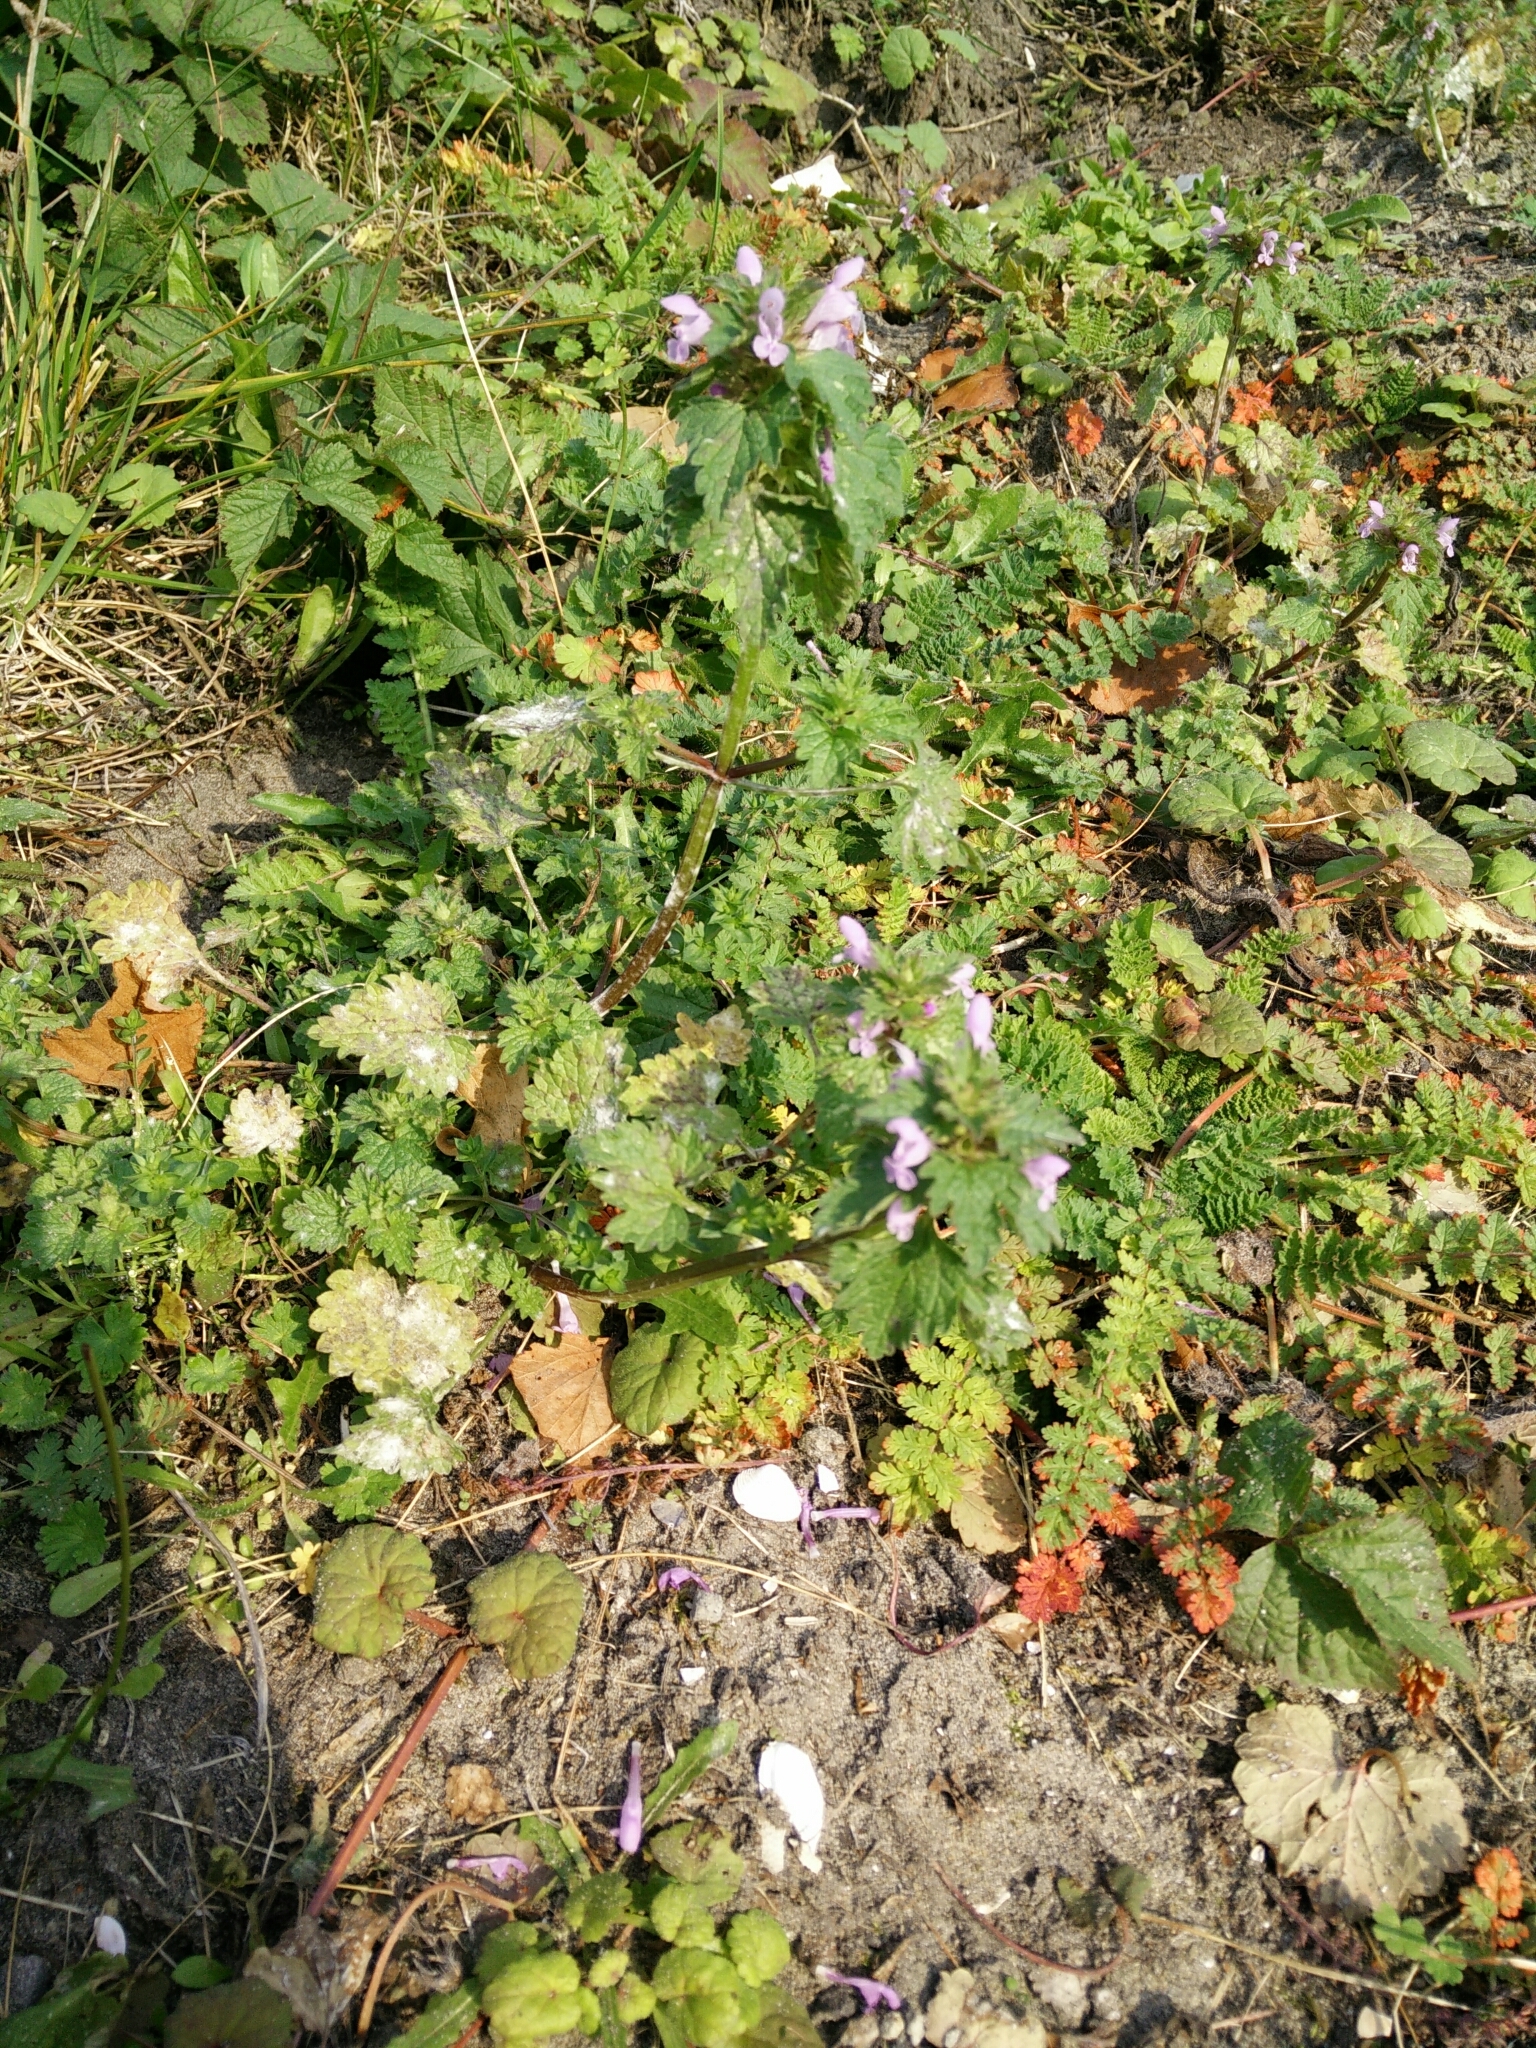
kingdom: Plantae
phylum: Tracheophyta
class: Magnoliopsida
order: Lamiales
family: Lamiaceae
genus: Lamium
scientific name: Lamium purpureum
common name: Red dead-nettle
